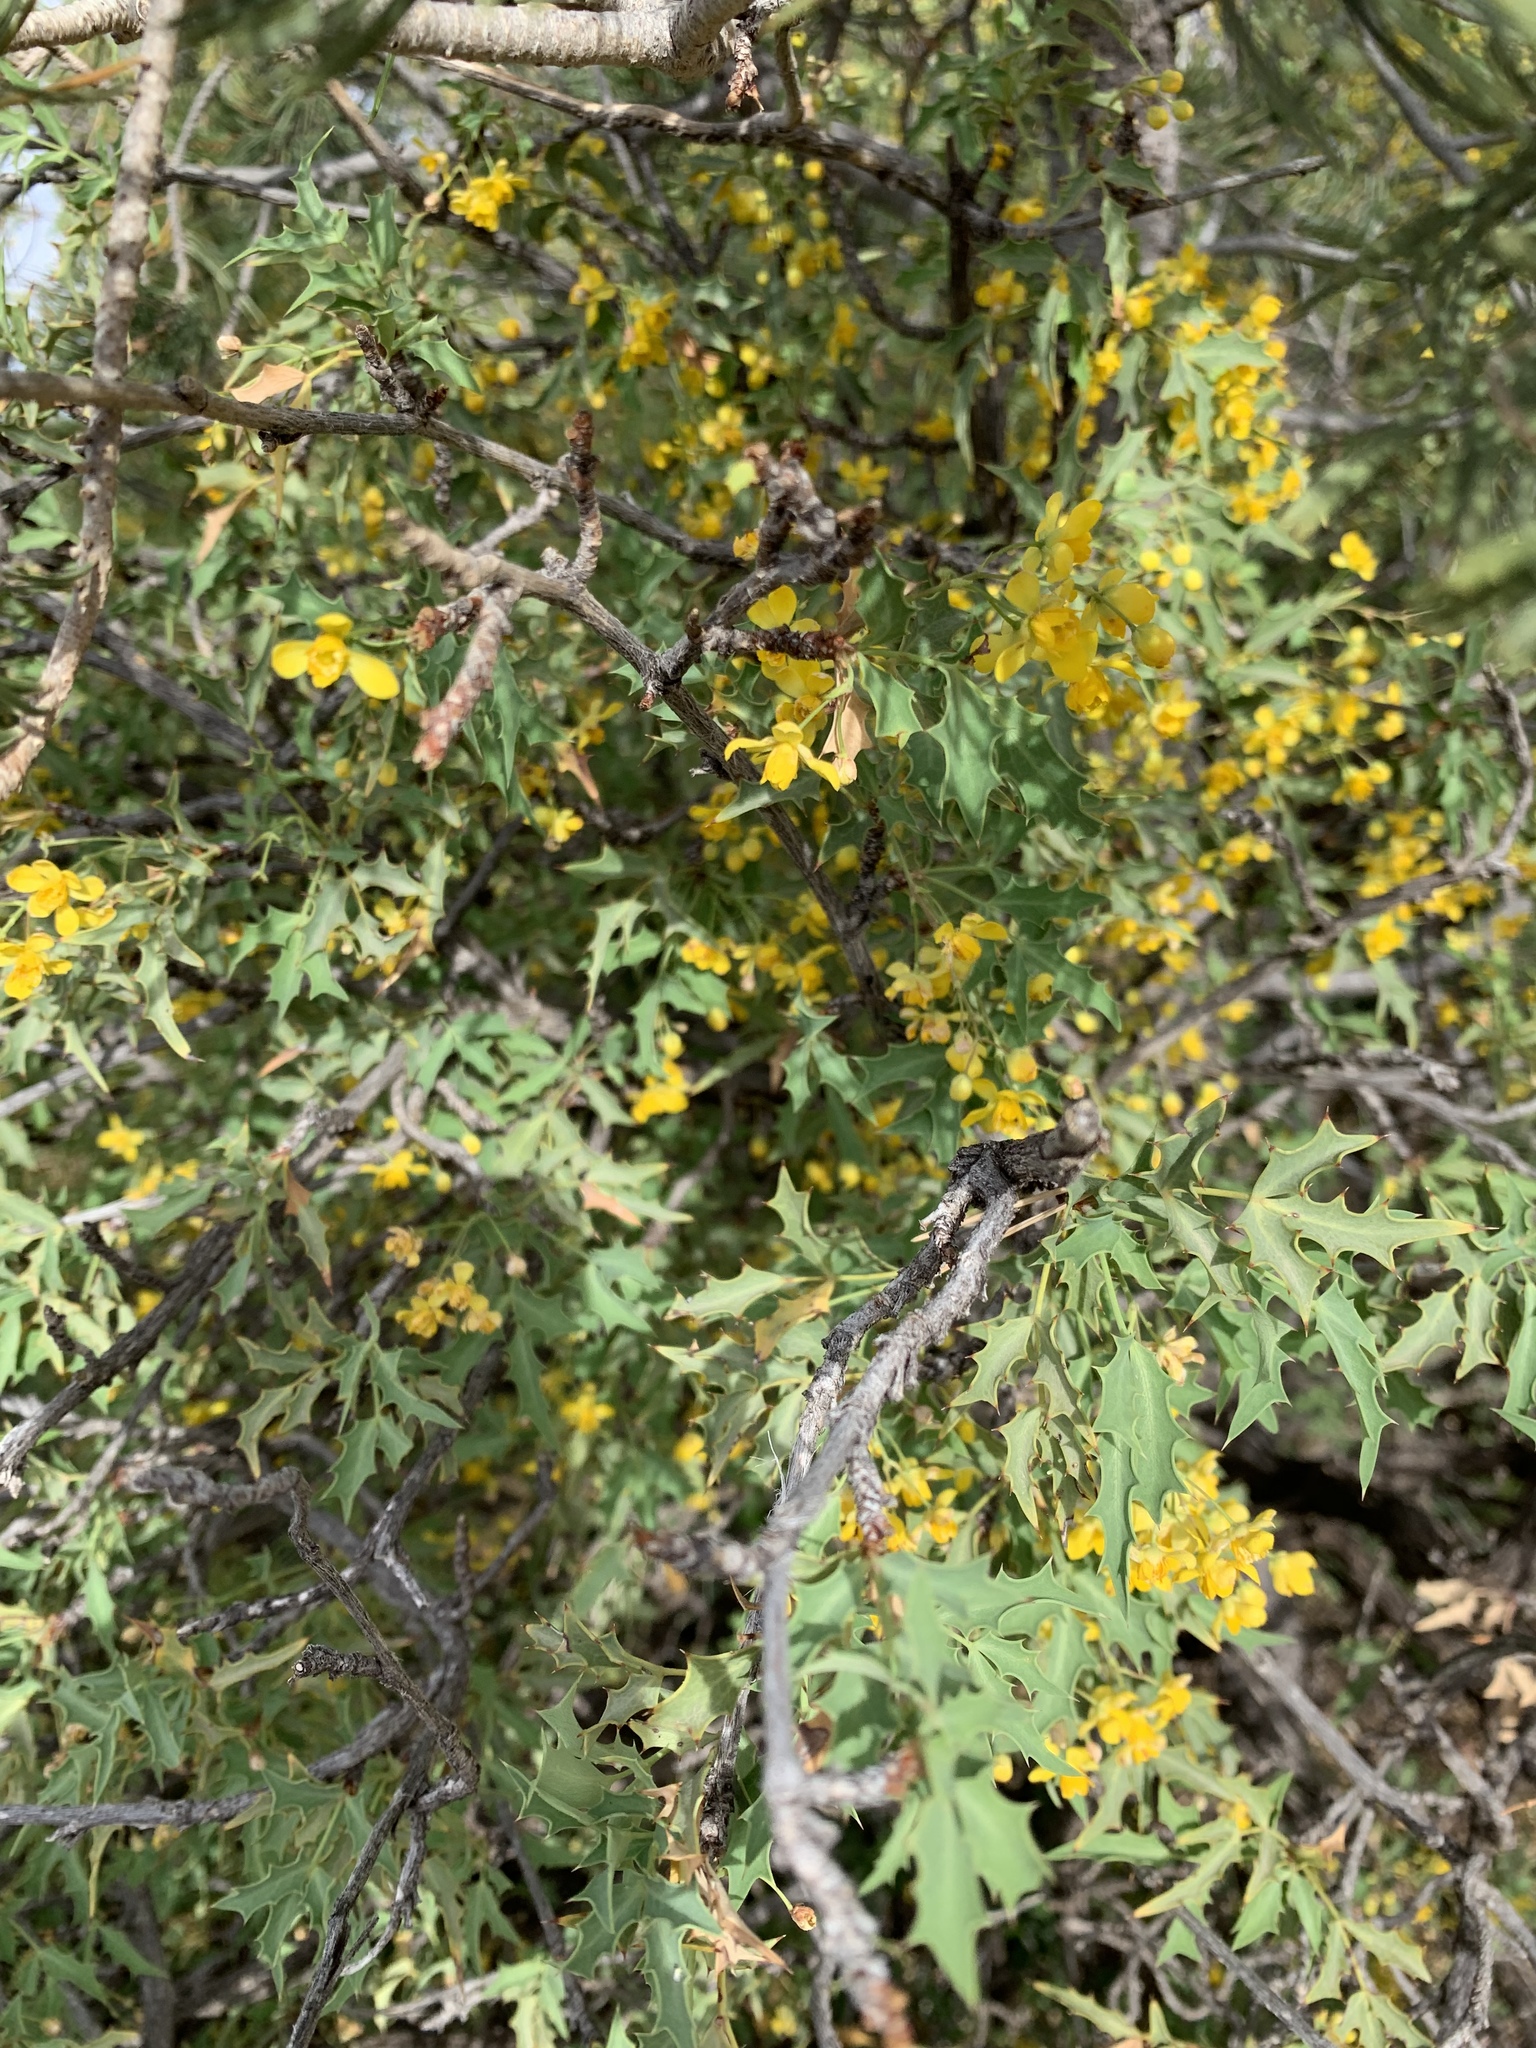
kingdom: Plantae
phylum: Tracheophyta
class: Magnoliopsida
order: Ranunculales
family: Berberidaceae
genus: Alloberberis
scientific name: Alloberberis haematocarpa
